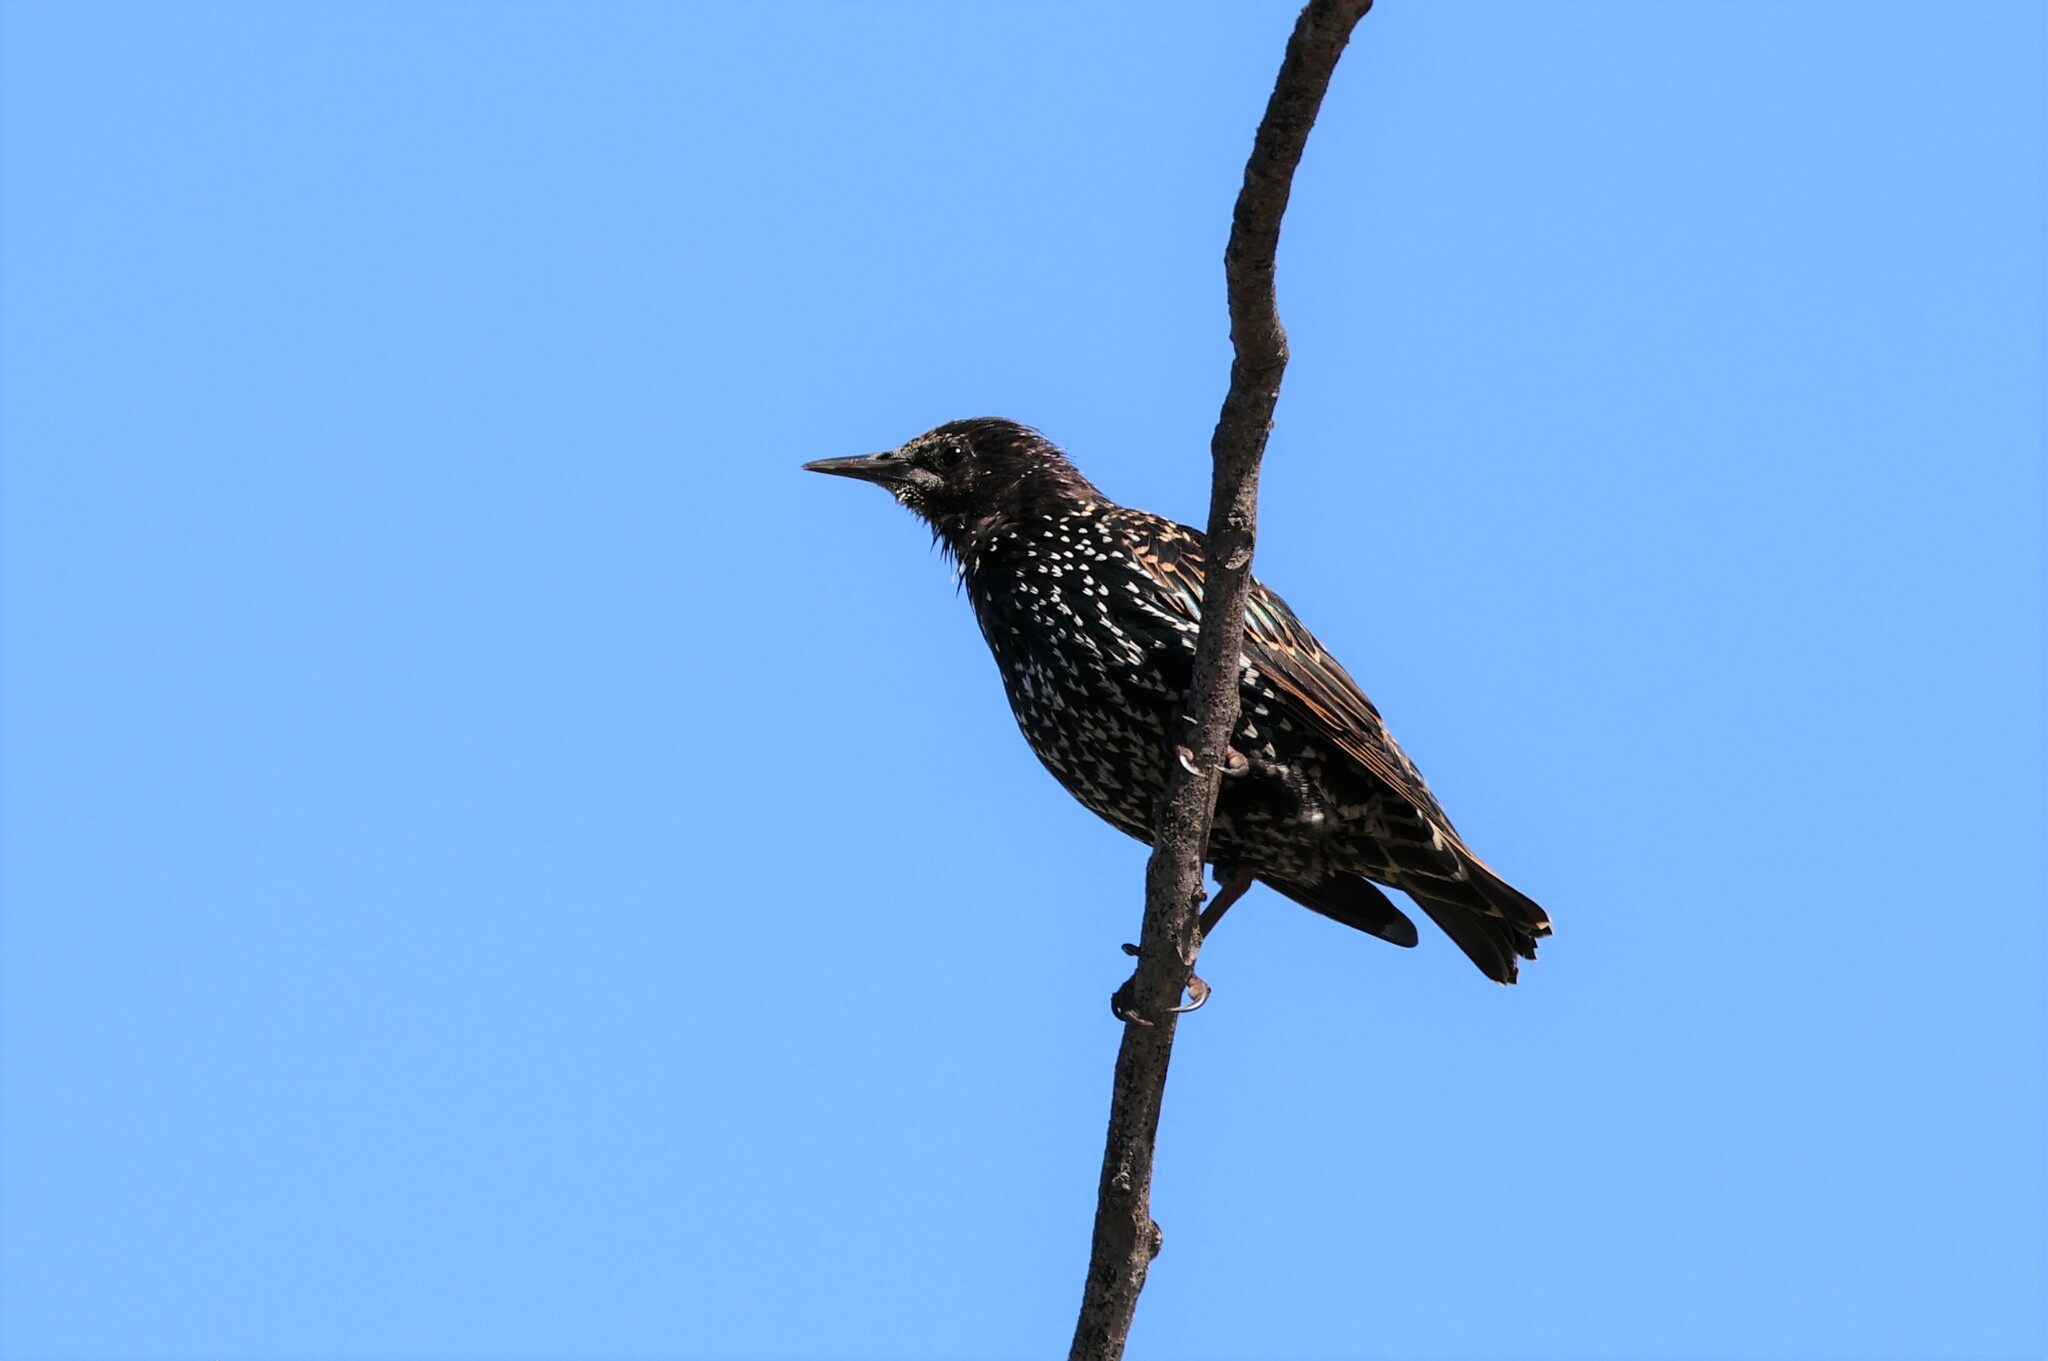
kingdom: Animalia
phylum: Chordata
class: Aves
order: Passeriformes
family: Sturnidae
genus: Sturnus
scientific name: Sturnus vulgaris
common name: Common starling
